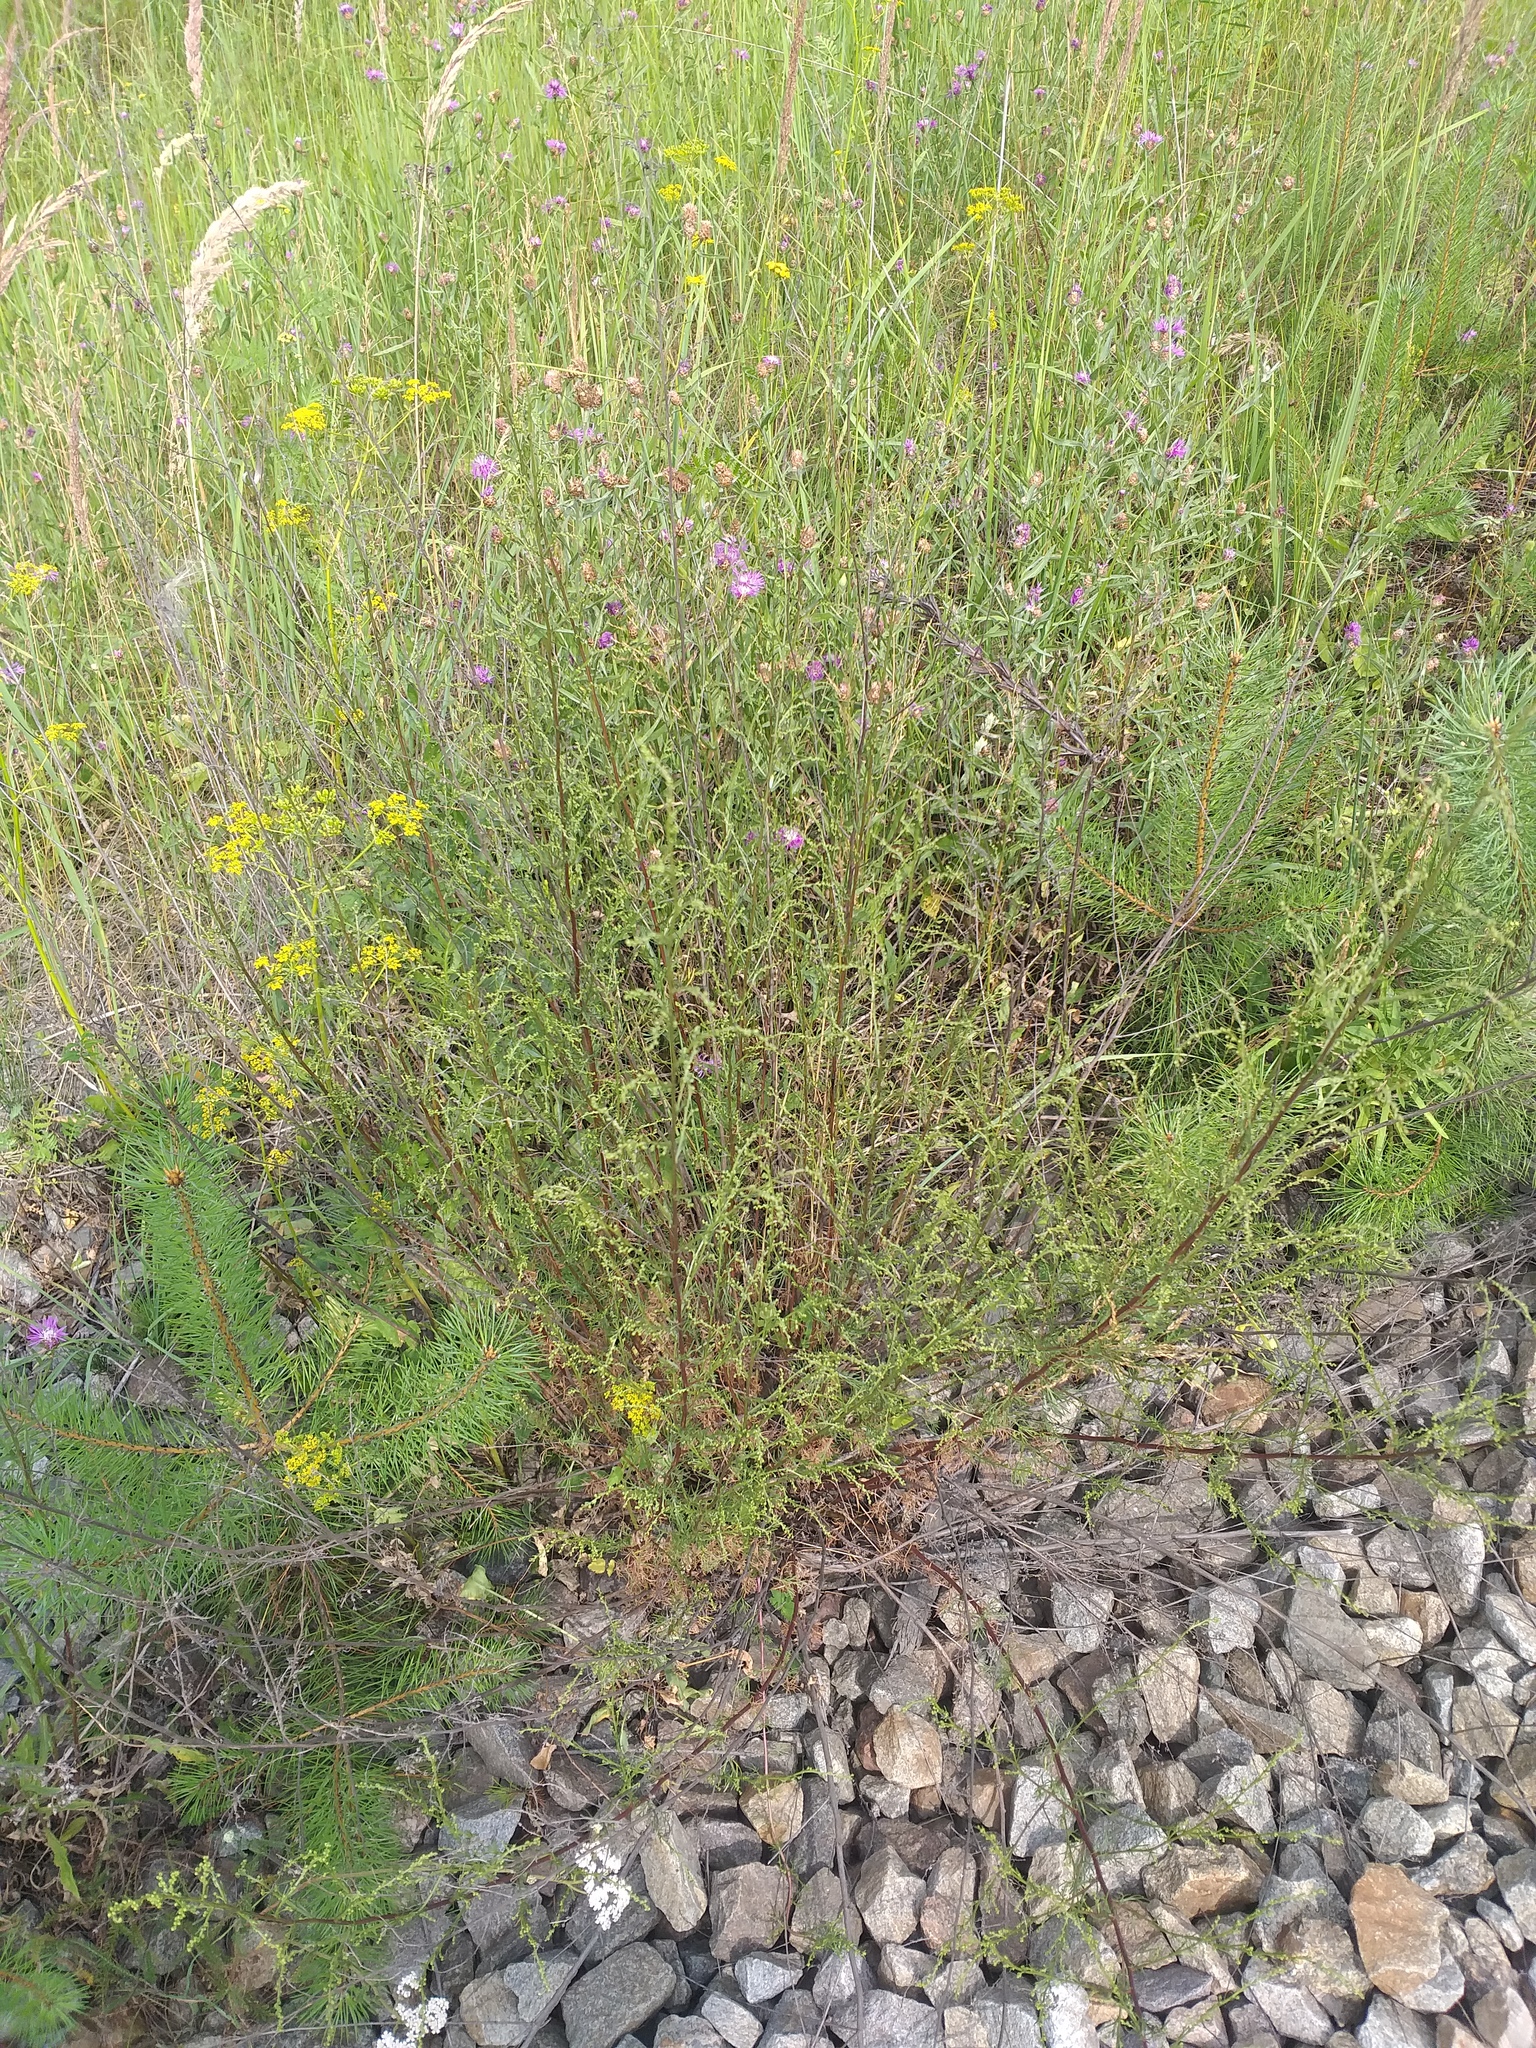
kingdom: Plantae
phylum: Tracheophyta
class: Magnoliopsida
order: Asterales
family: Asteraceae
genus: Artemisia
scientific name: Artemisia campestris
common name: Field wormwood
